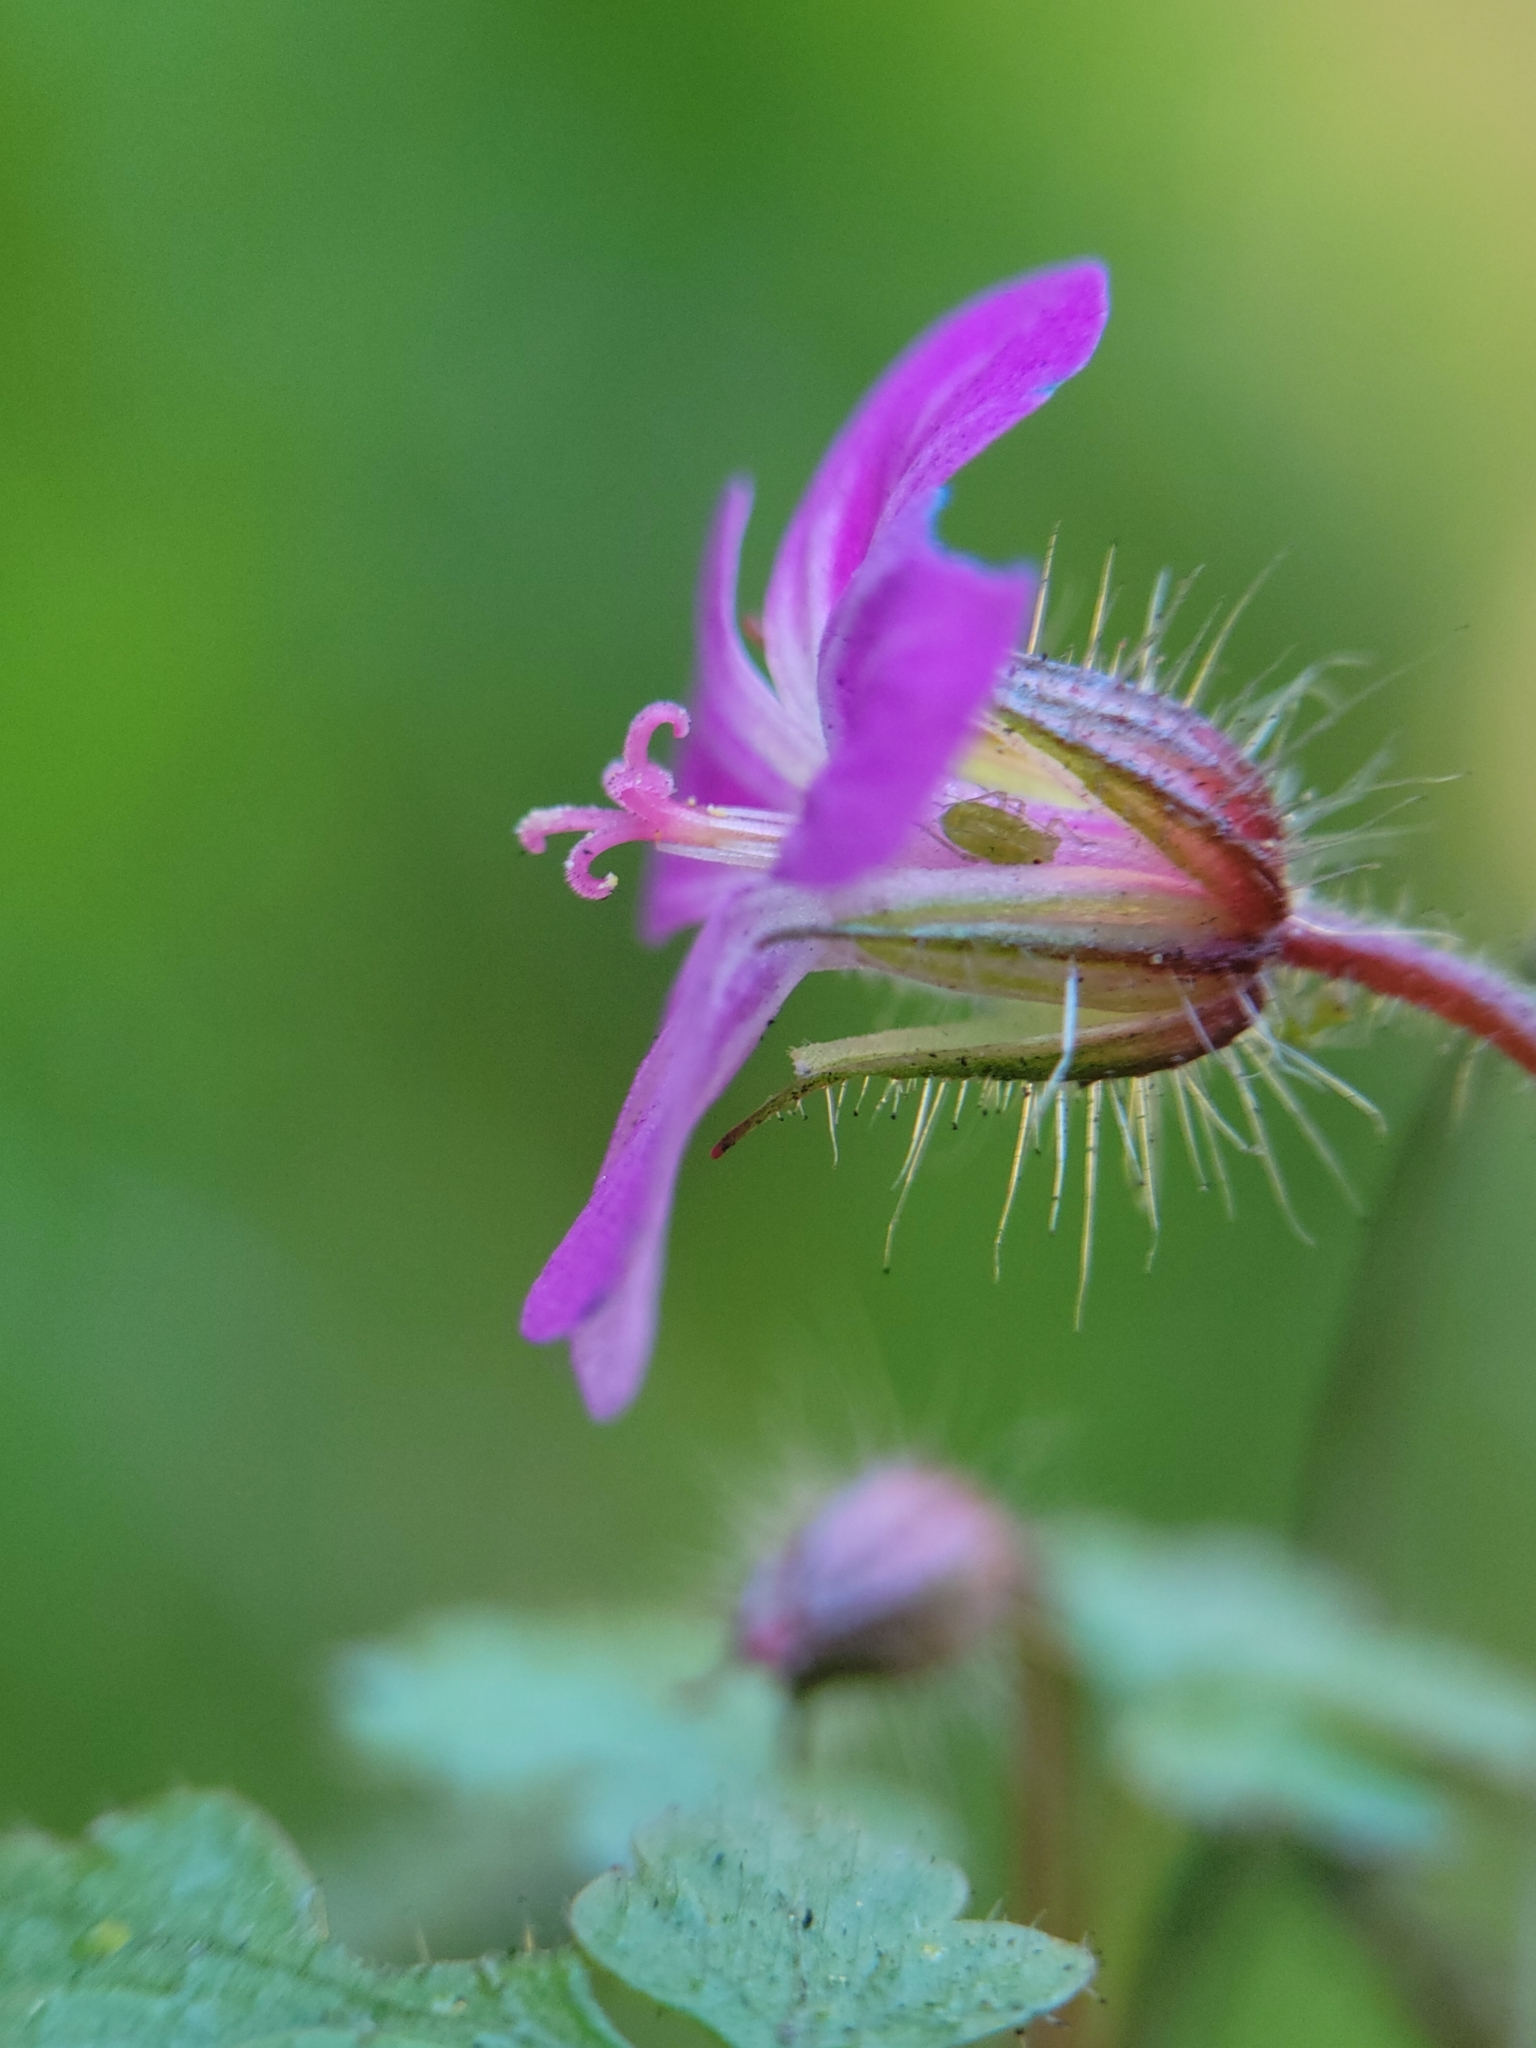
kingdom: Plantae
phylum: Tracheophyta
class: Magnoliopsida
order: Geraniales
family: Geraniaceae
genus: Geranium
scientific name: Geranium robertianum
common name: Herb-robert
